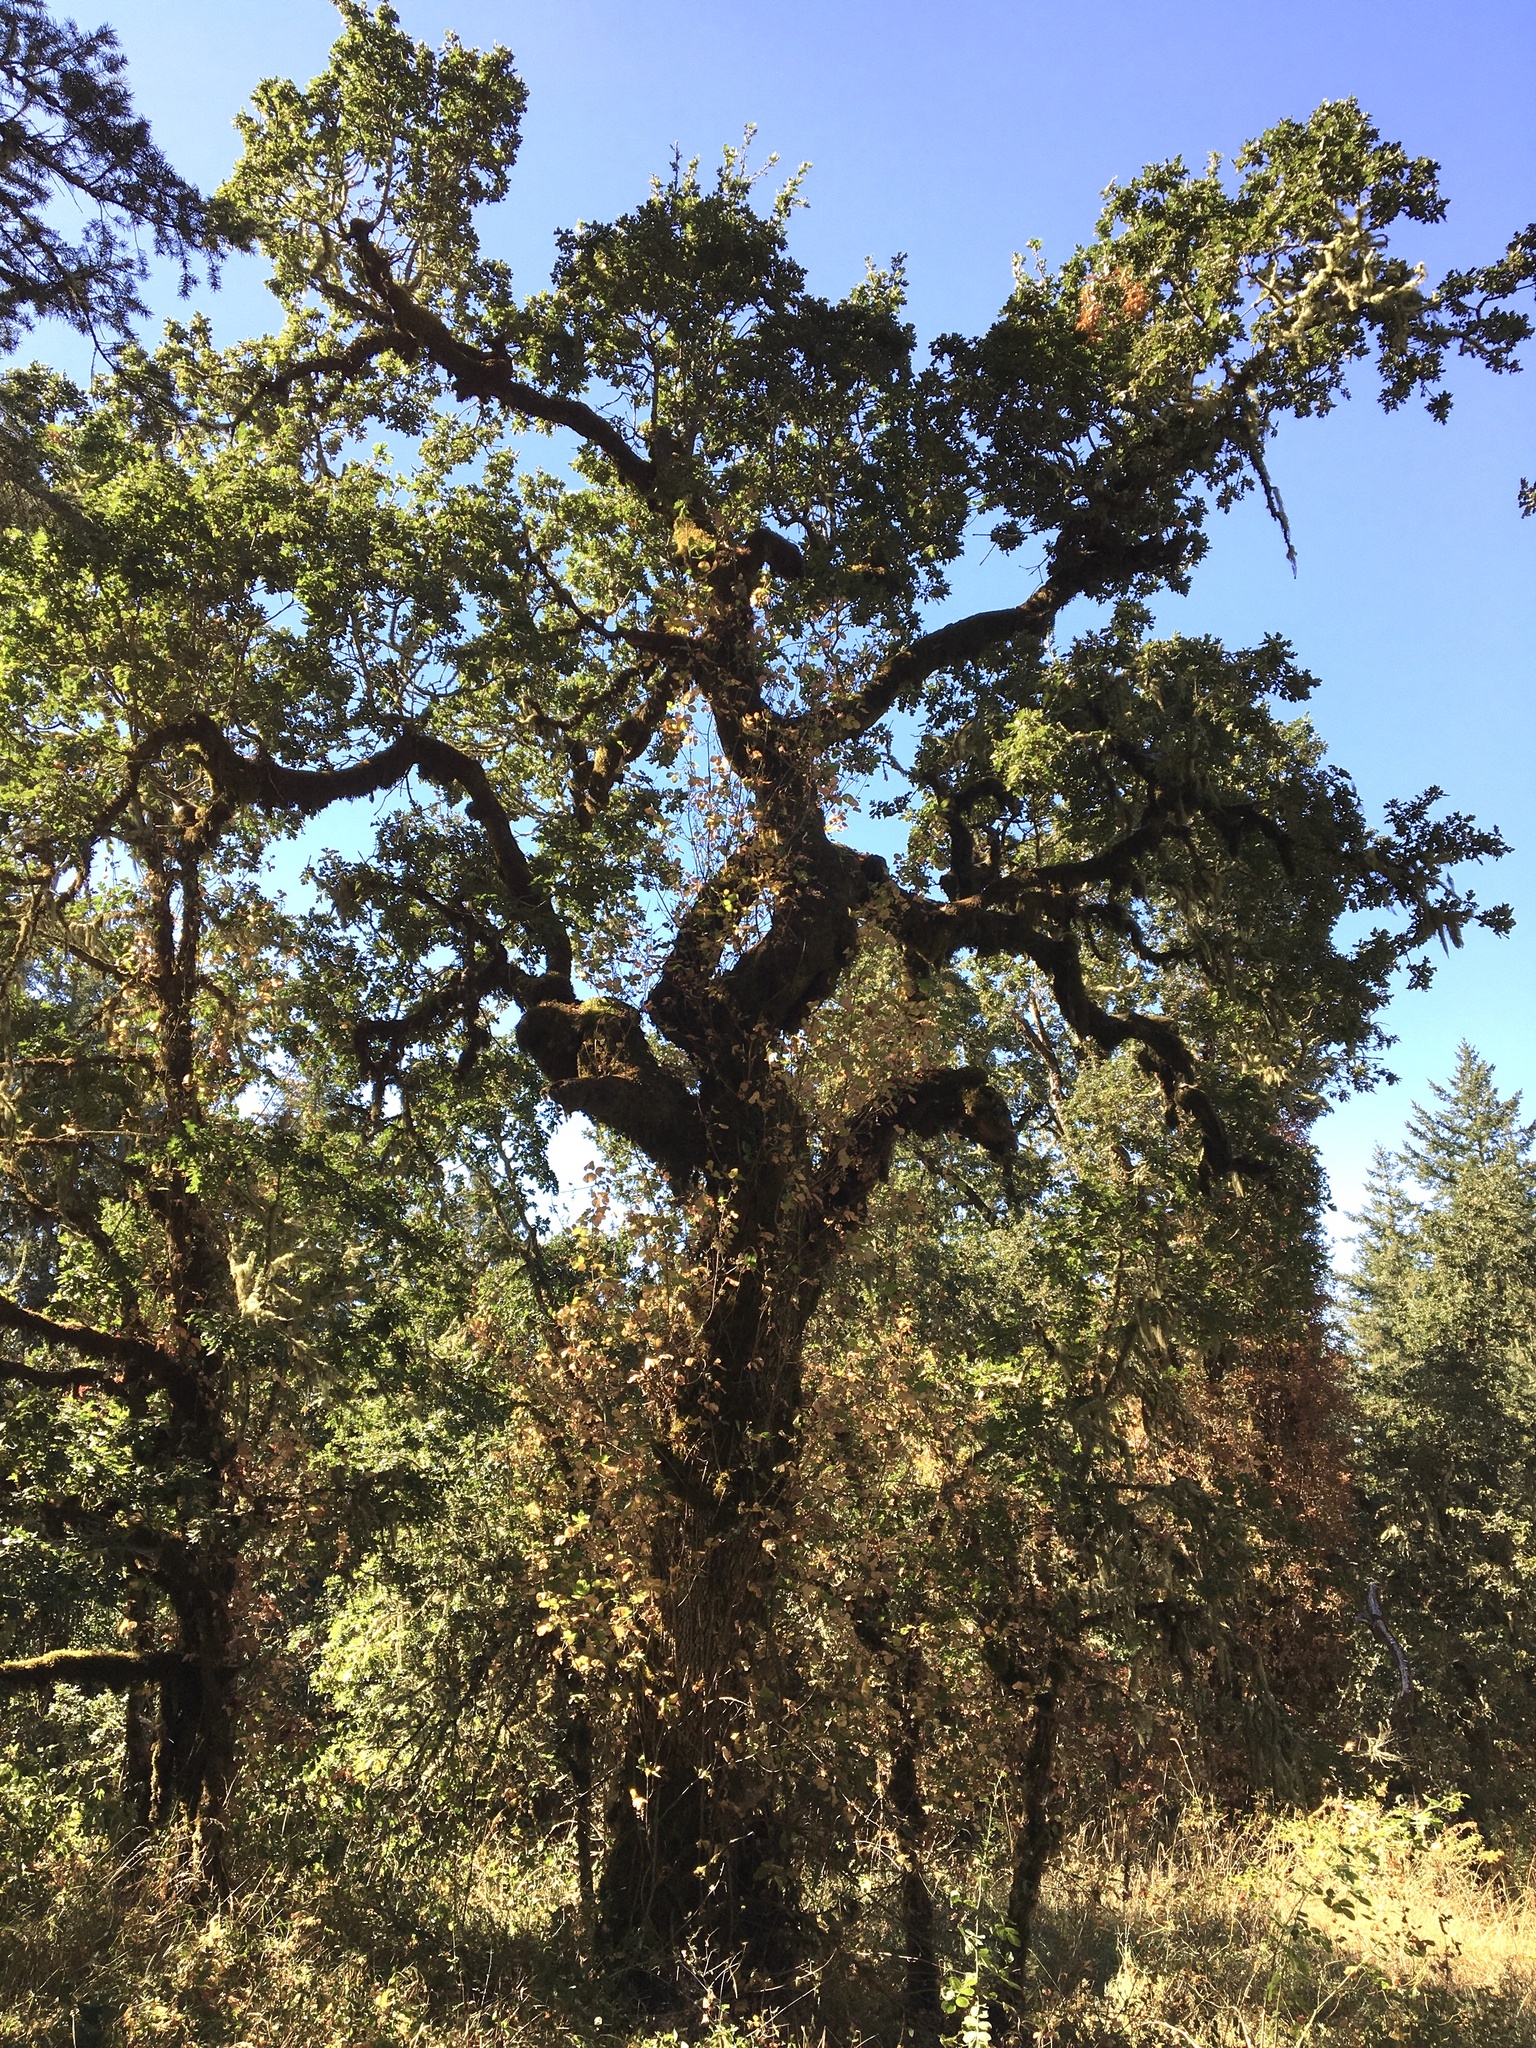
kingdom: Plantae
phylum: Tracheophyta
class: Magnoliopsida
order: Fagales
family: Fagaceae
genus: Quercus
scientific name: Quercus garryana
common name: Garry oak
